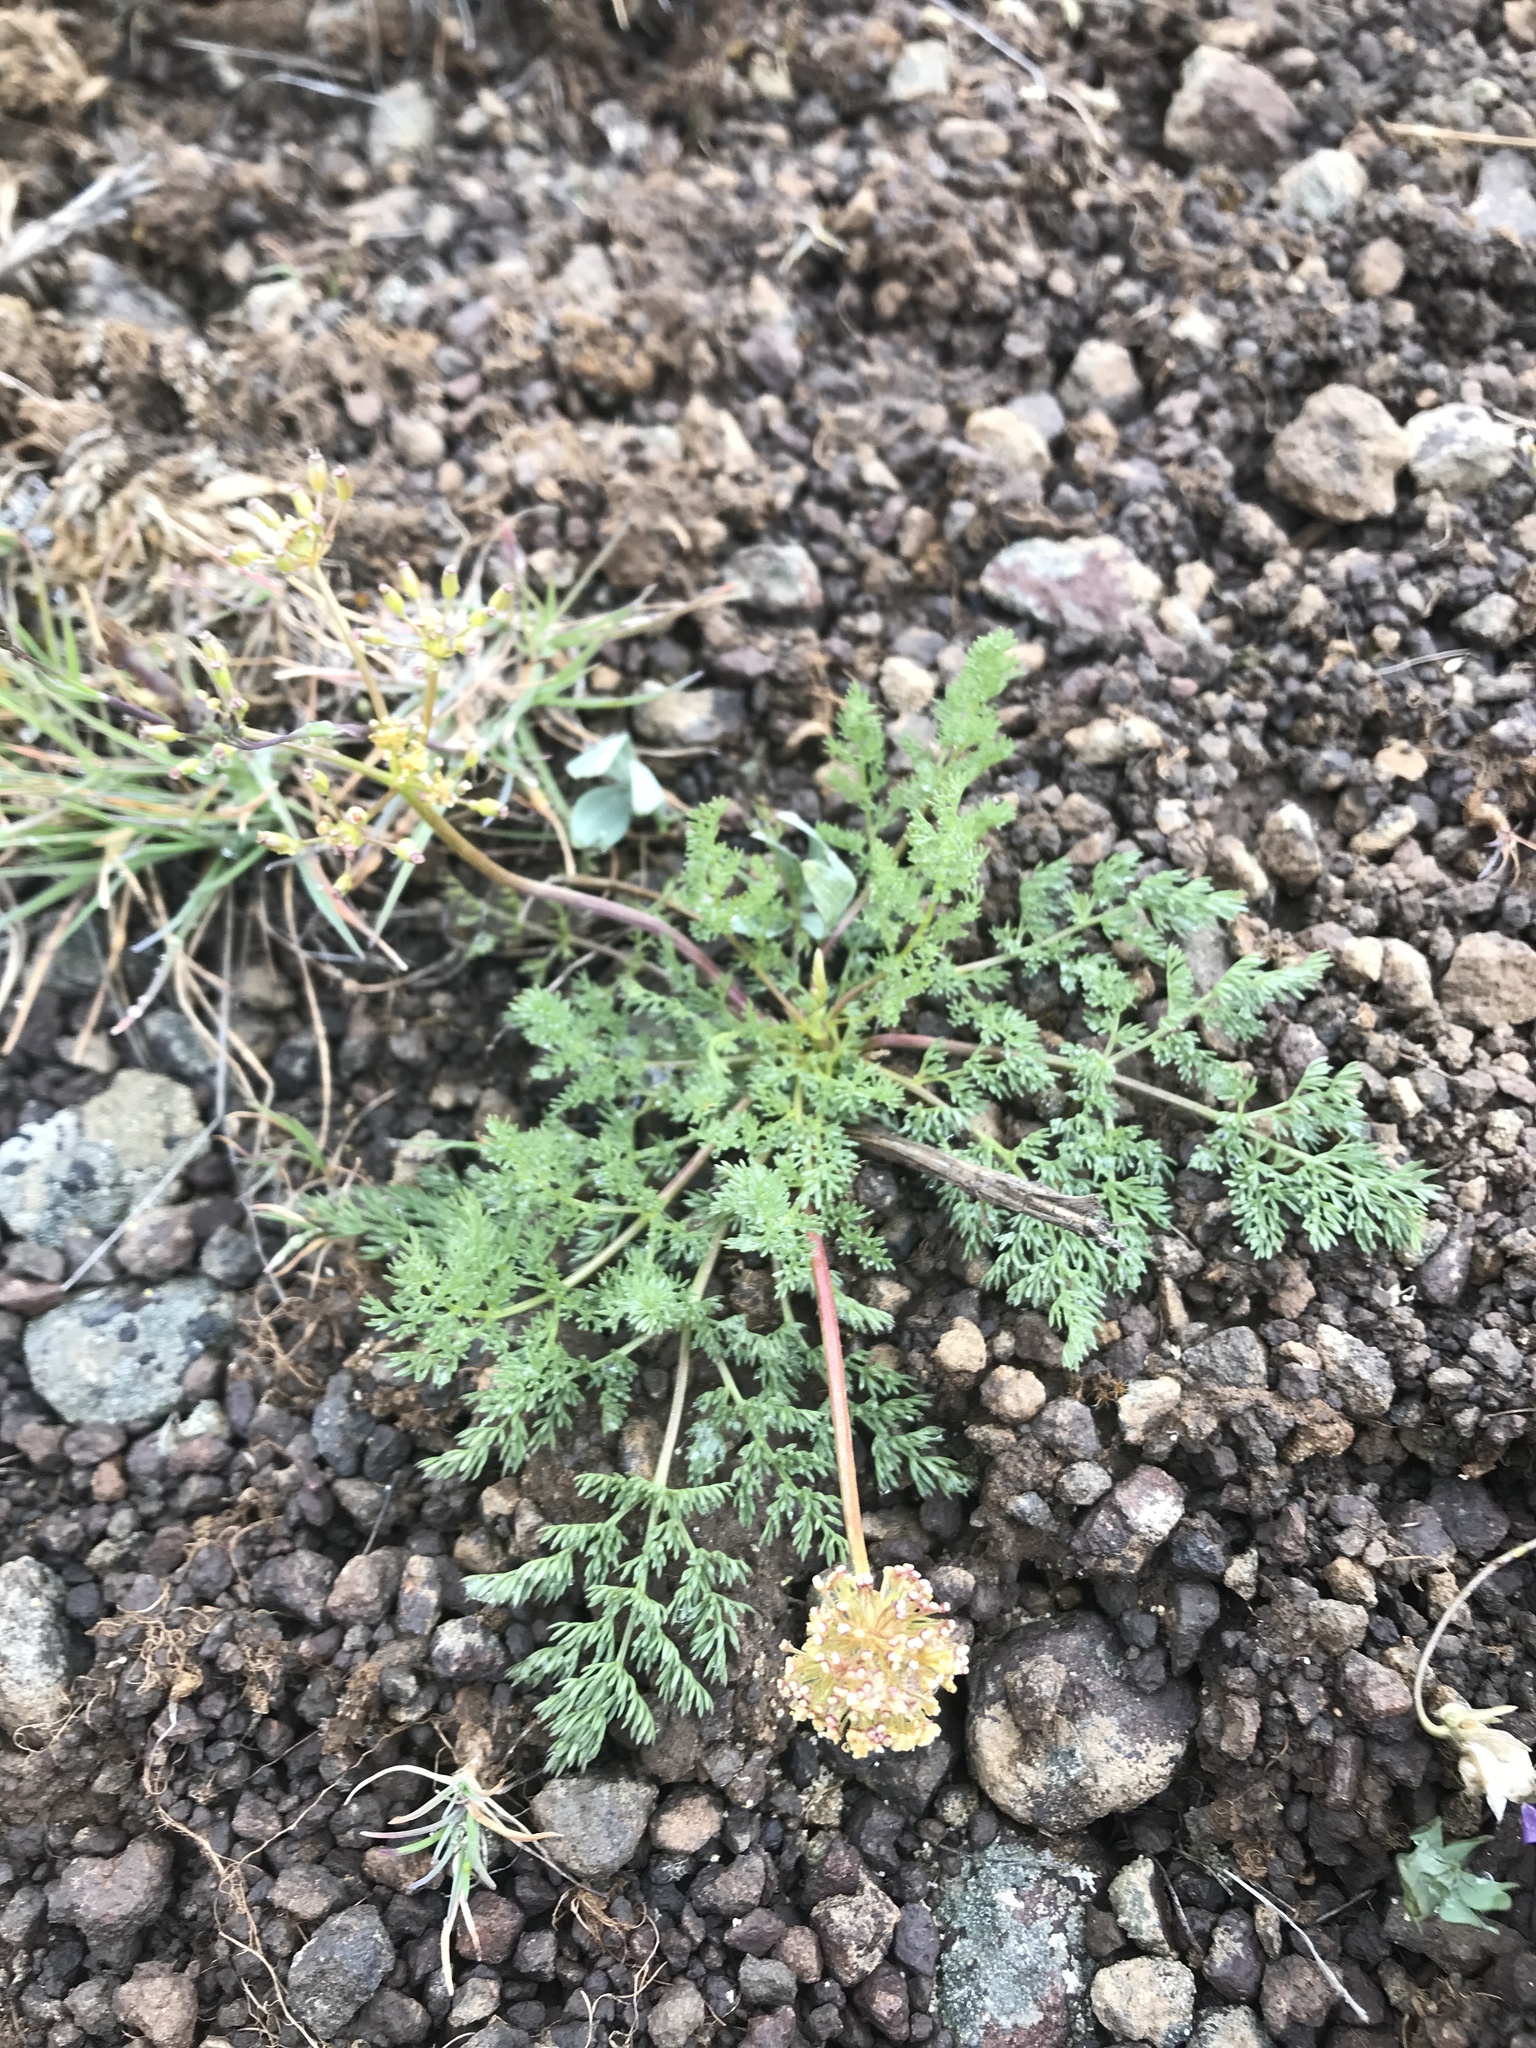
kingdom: Plantae
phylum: Tracheophyta
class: Magnoliopsida
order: Apiales
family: Apiaceae
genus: Lomatium
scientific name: Lomatium quintuplex
